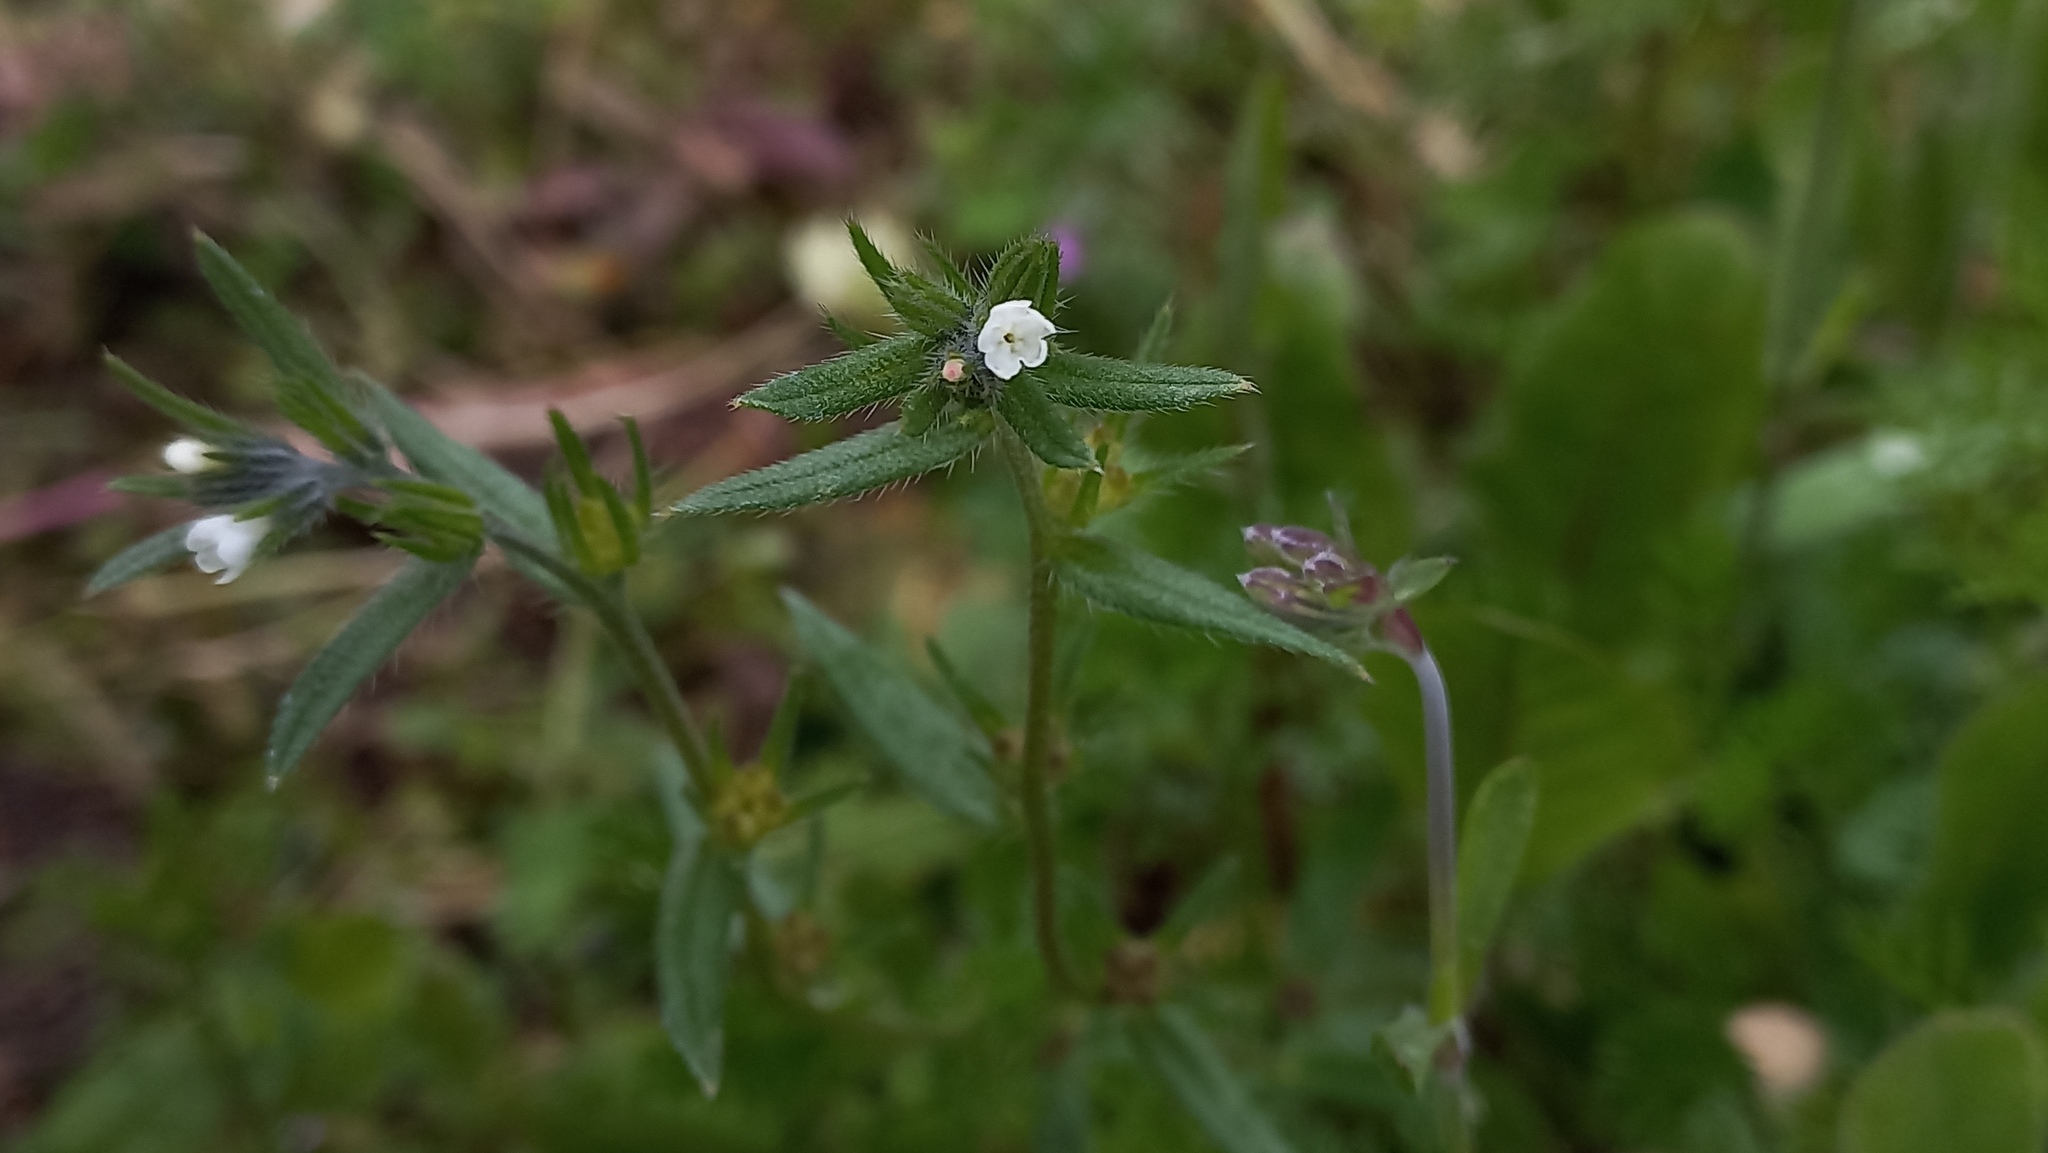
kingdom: Plantae
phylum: Tracheophyta
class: Magnoliopsida
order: Boraginales
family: Boraginaceae
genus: Buglossoides
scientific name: Buglossoides arvensis
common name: Corn gromwell
